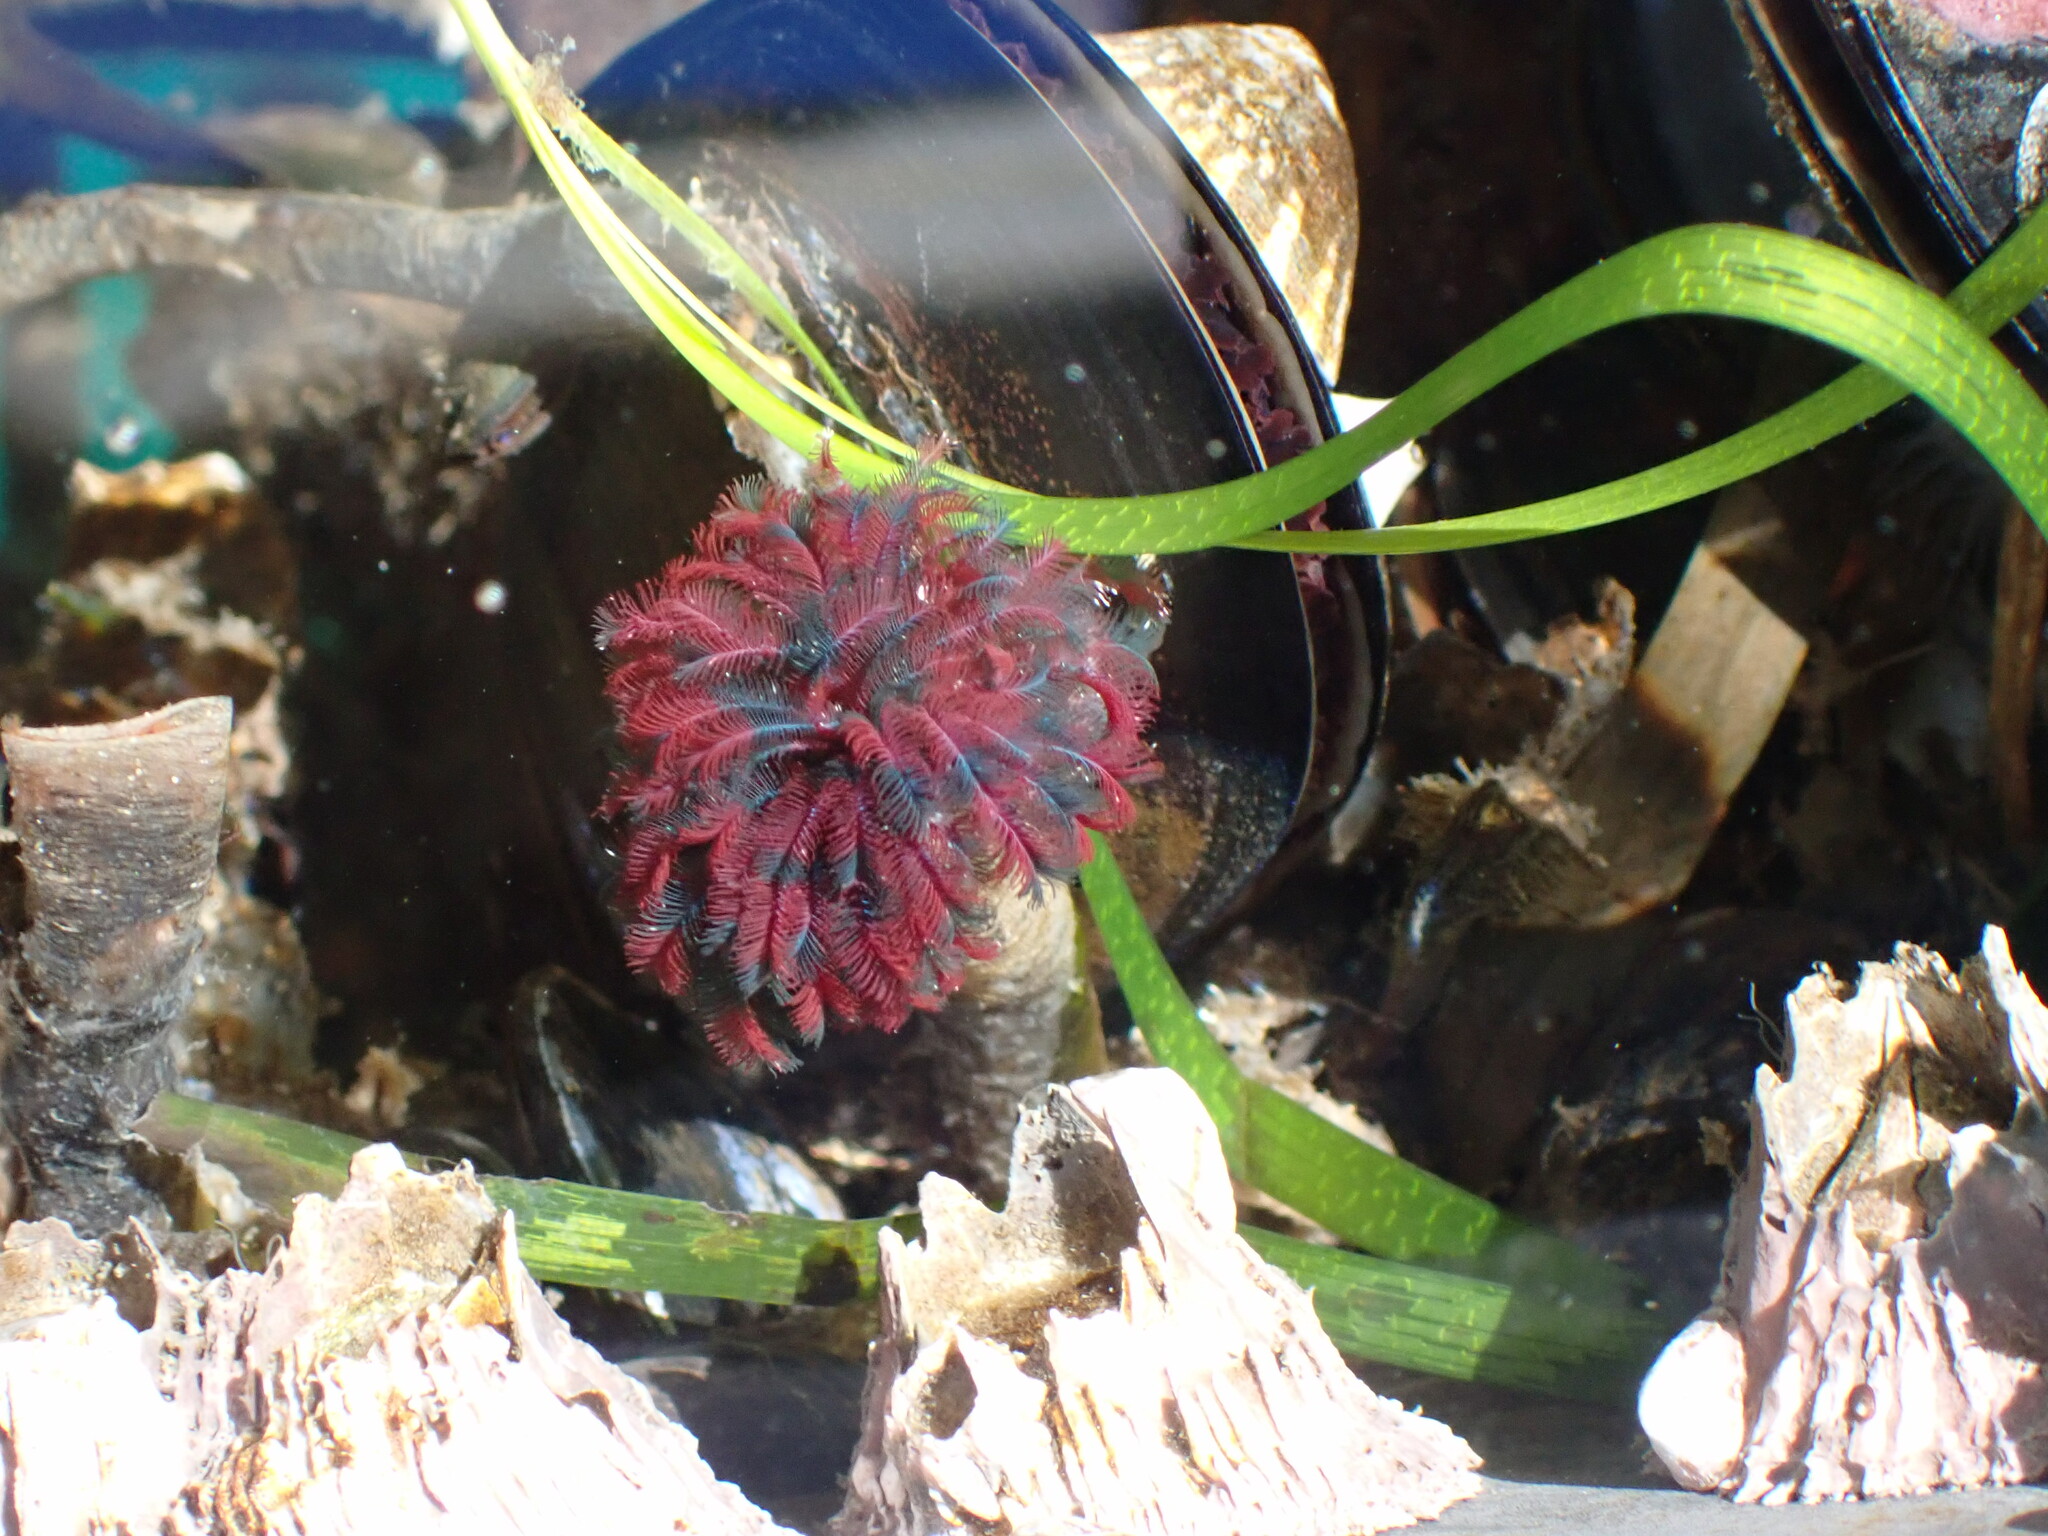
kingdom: Animalia
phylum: Annelida
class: Polychaeta
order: Sabellida
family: Sabellidae
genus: Eudistylia
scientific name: Eudistylia vancouveri
